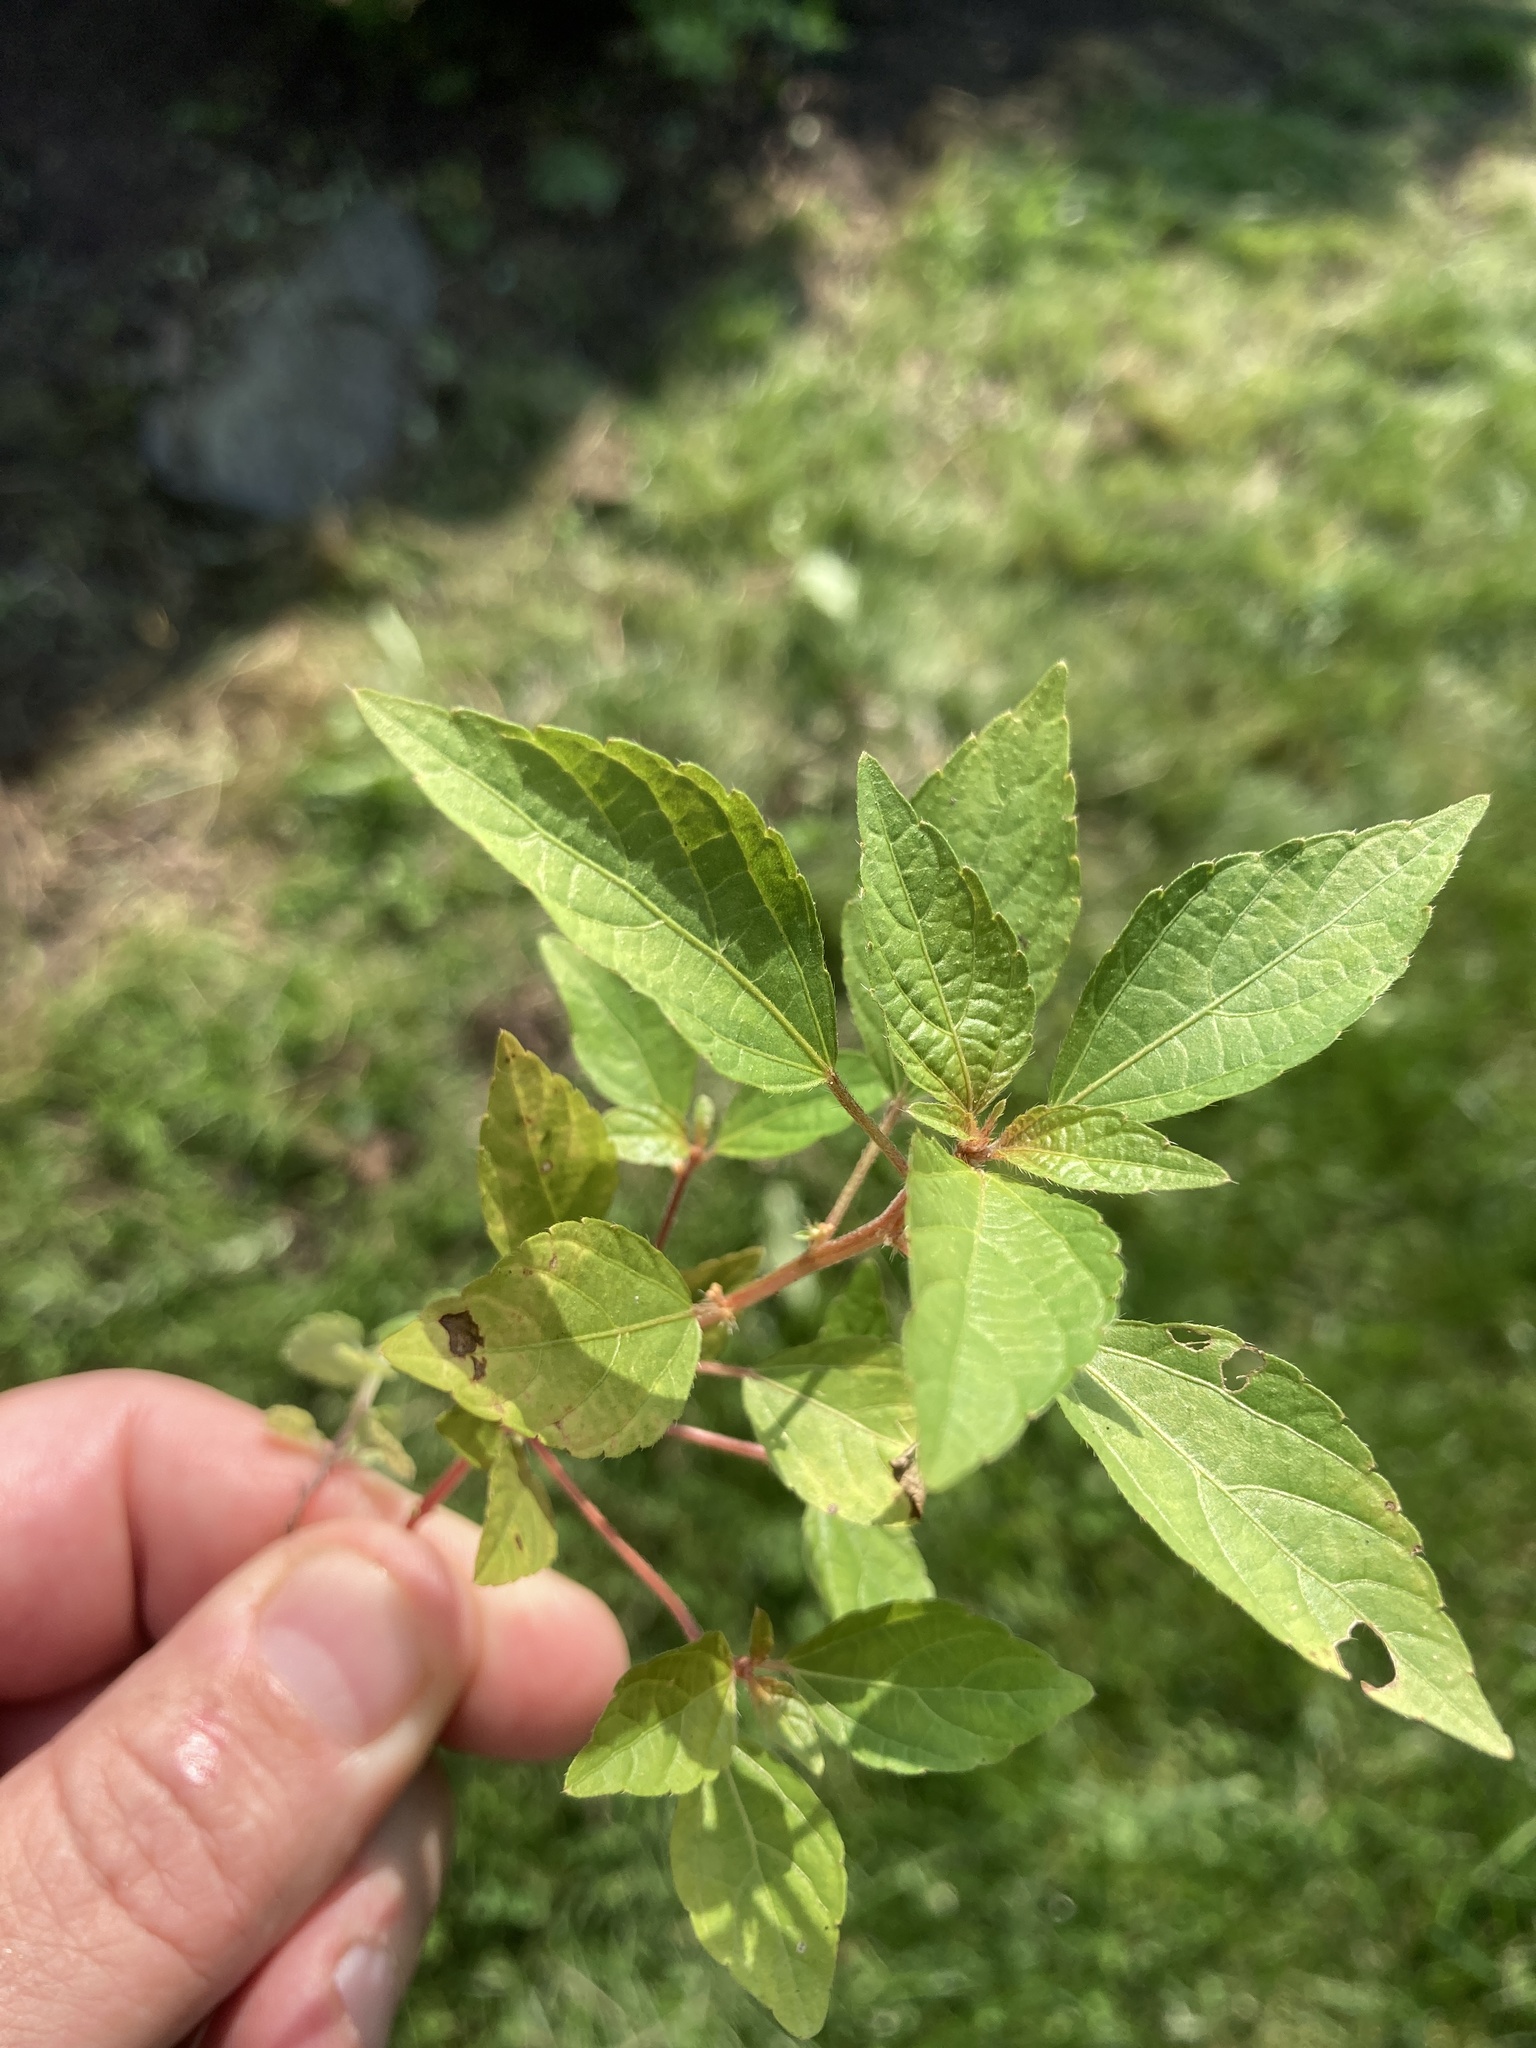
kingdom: Plantae
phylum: Tracheophyta
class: Magnoliopsida
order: Malpighiales
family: Euphorbiaceae
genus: Acalypha
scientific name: Acalypha rhomboidea
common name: Rhombic copperleaf
